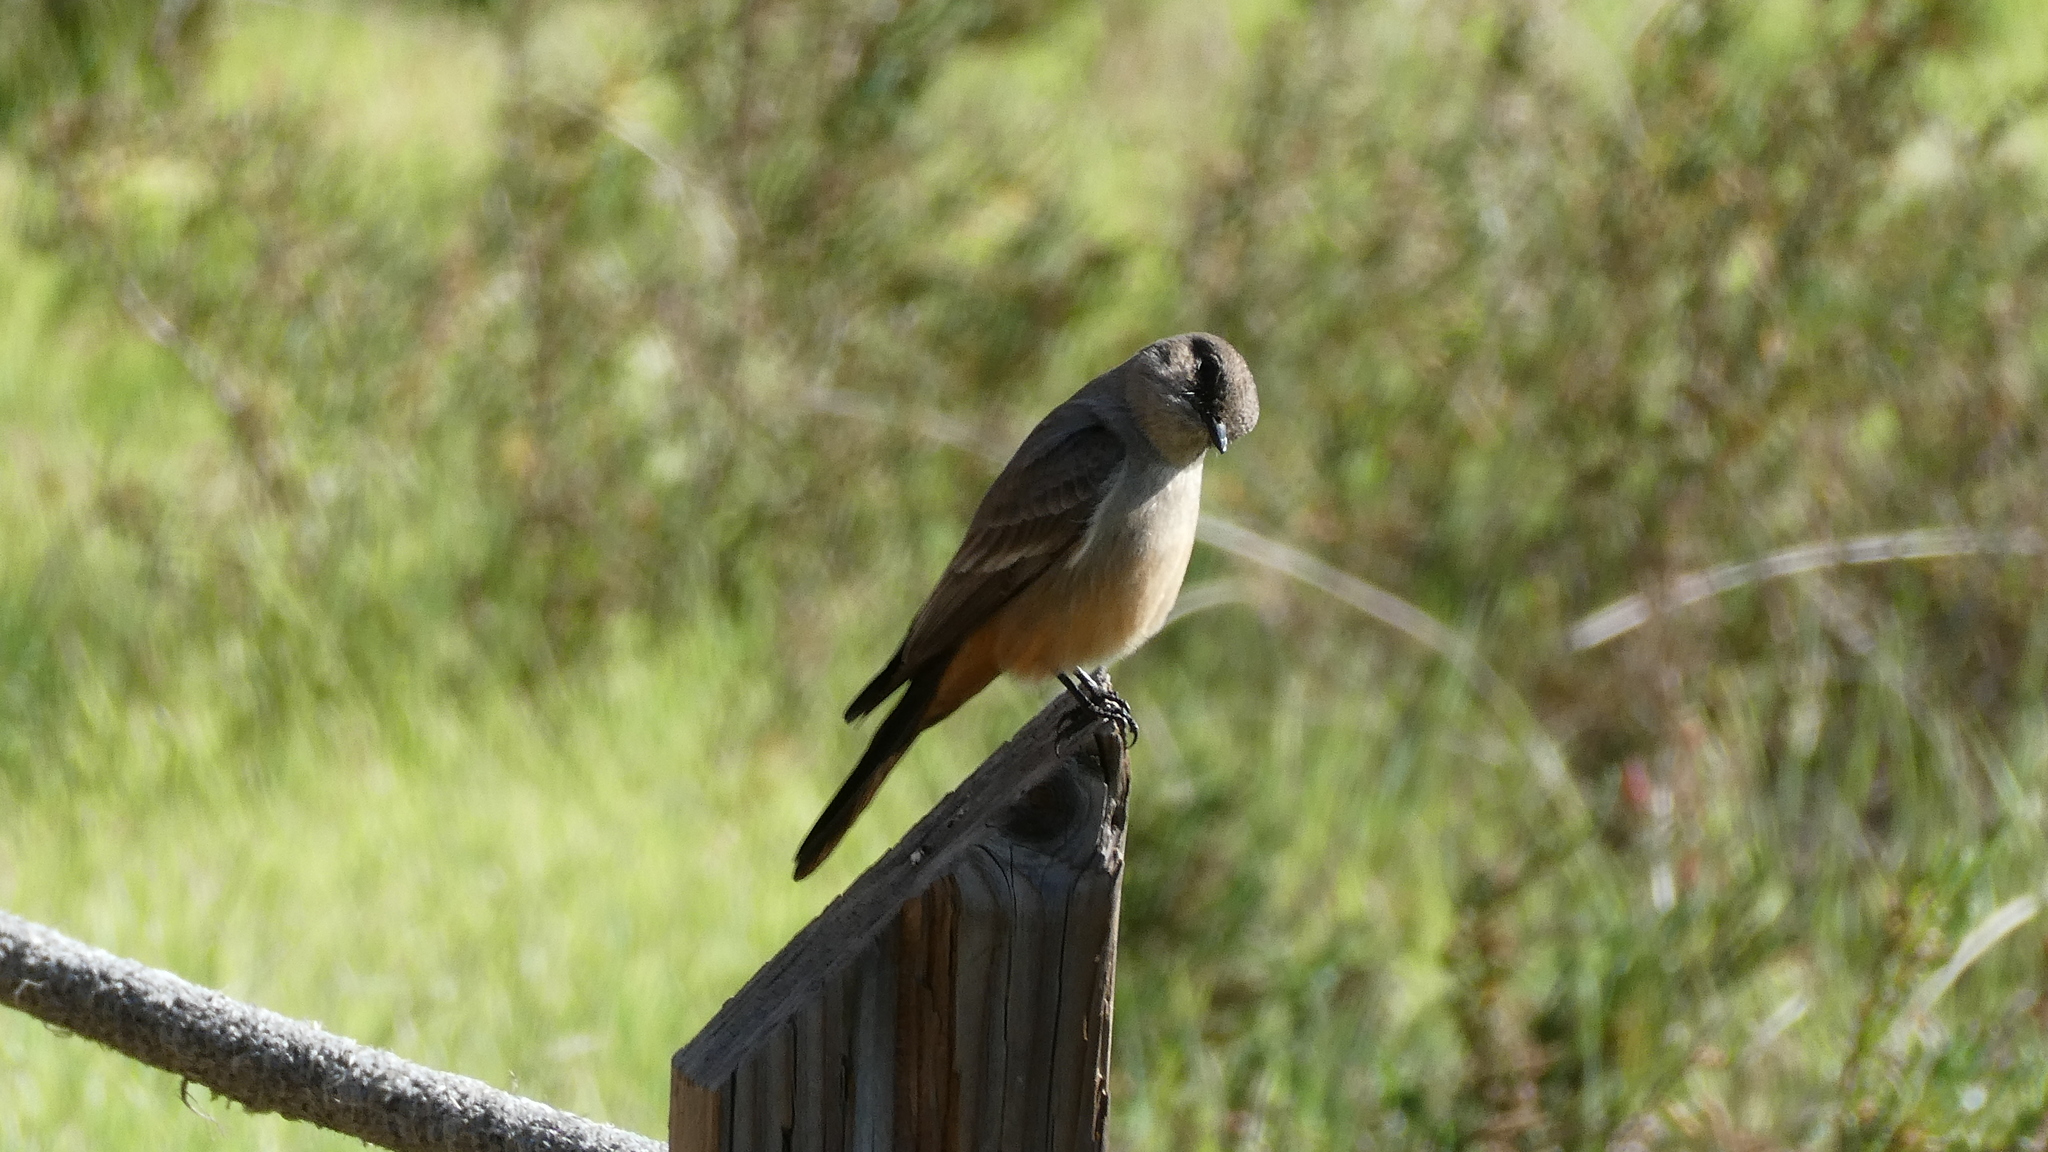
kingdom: Animalia
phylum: Chordata
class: Aves
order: Passeriformes
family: Tyrannidae
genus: Sayornis
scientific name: Sayornis saya
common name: Say's phoebe
